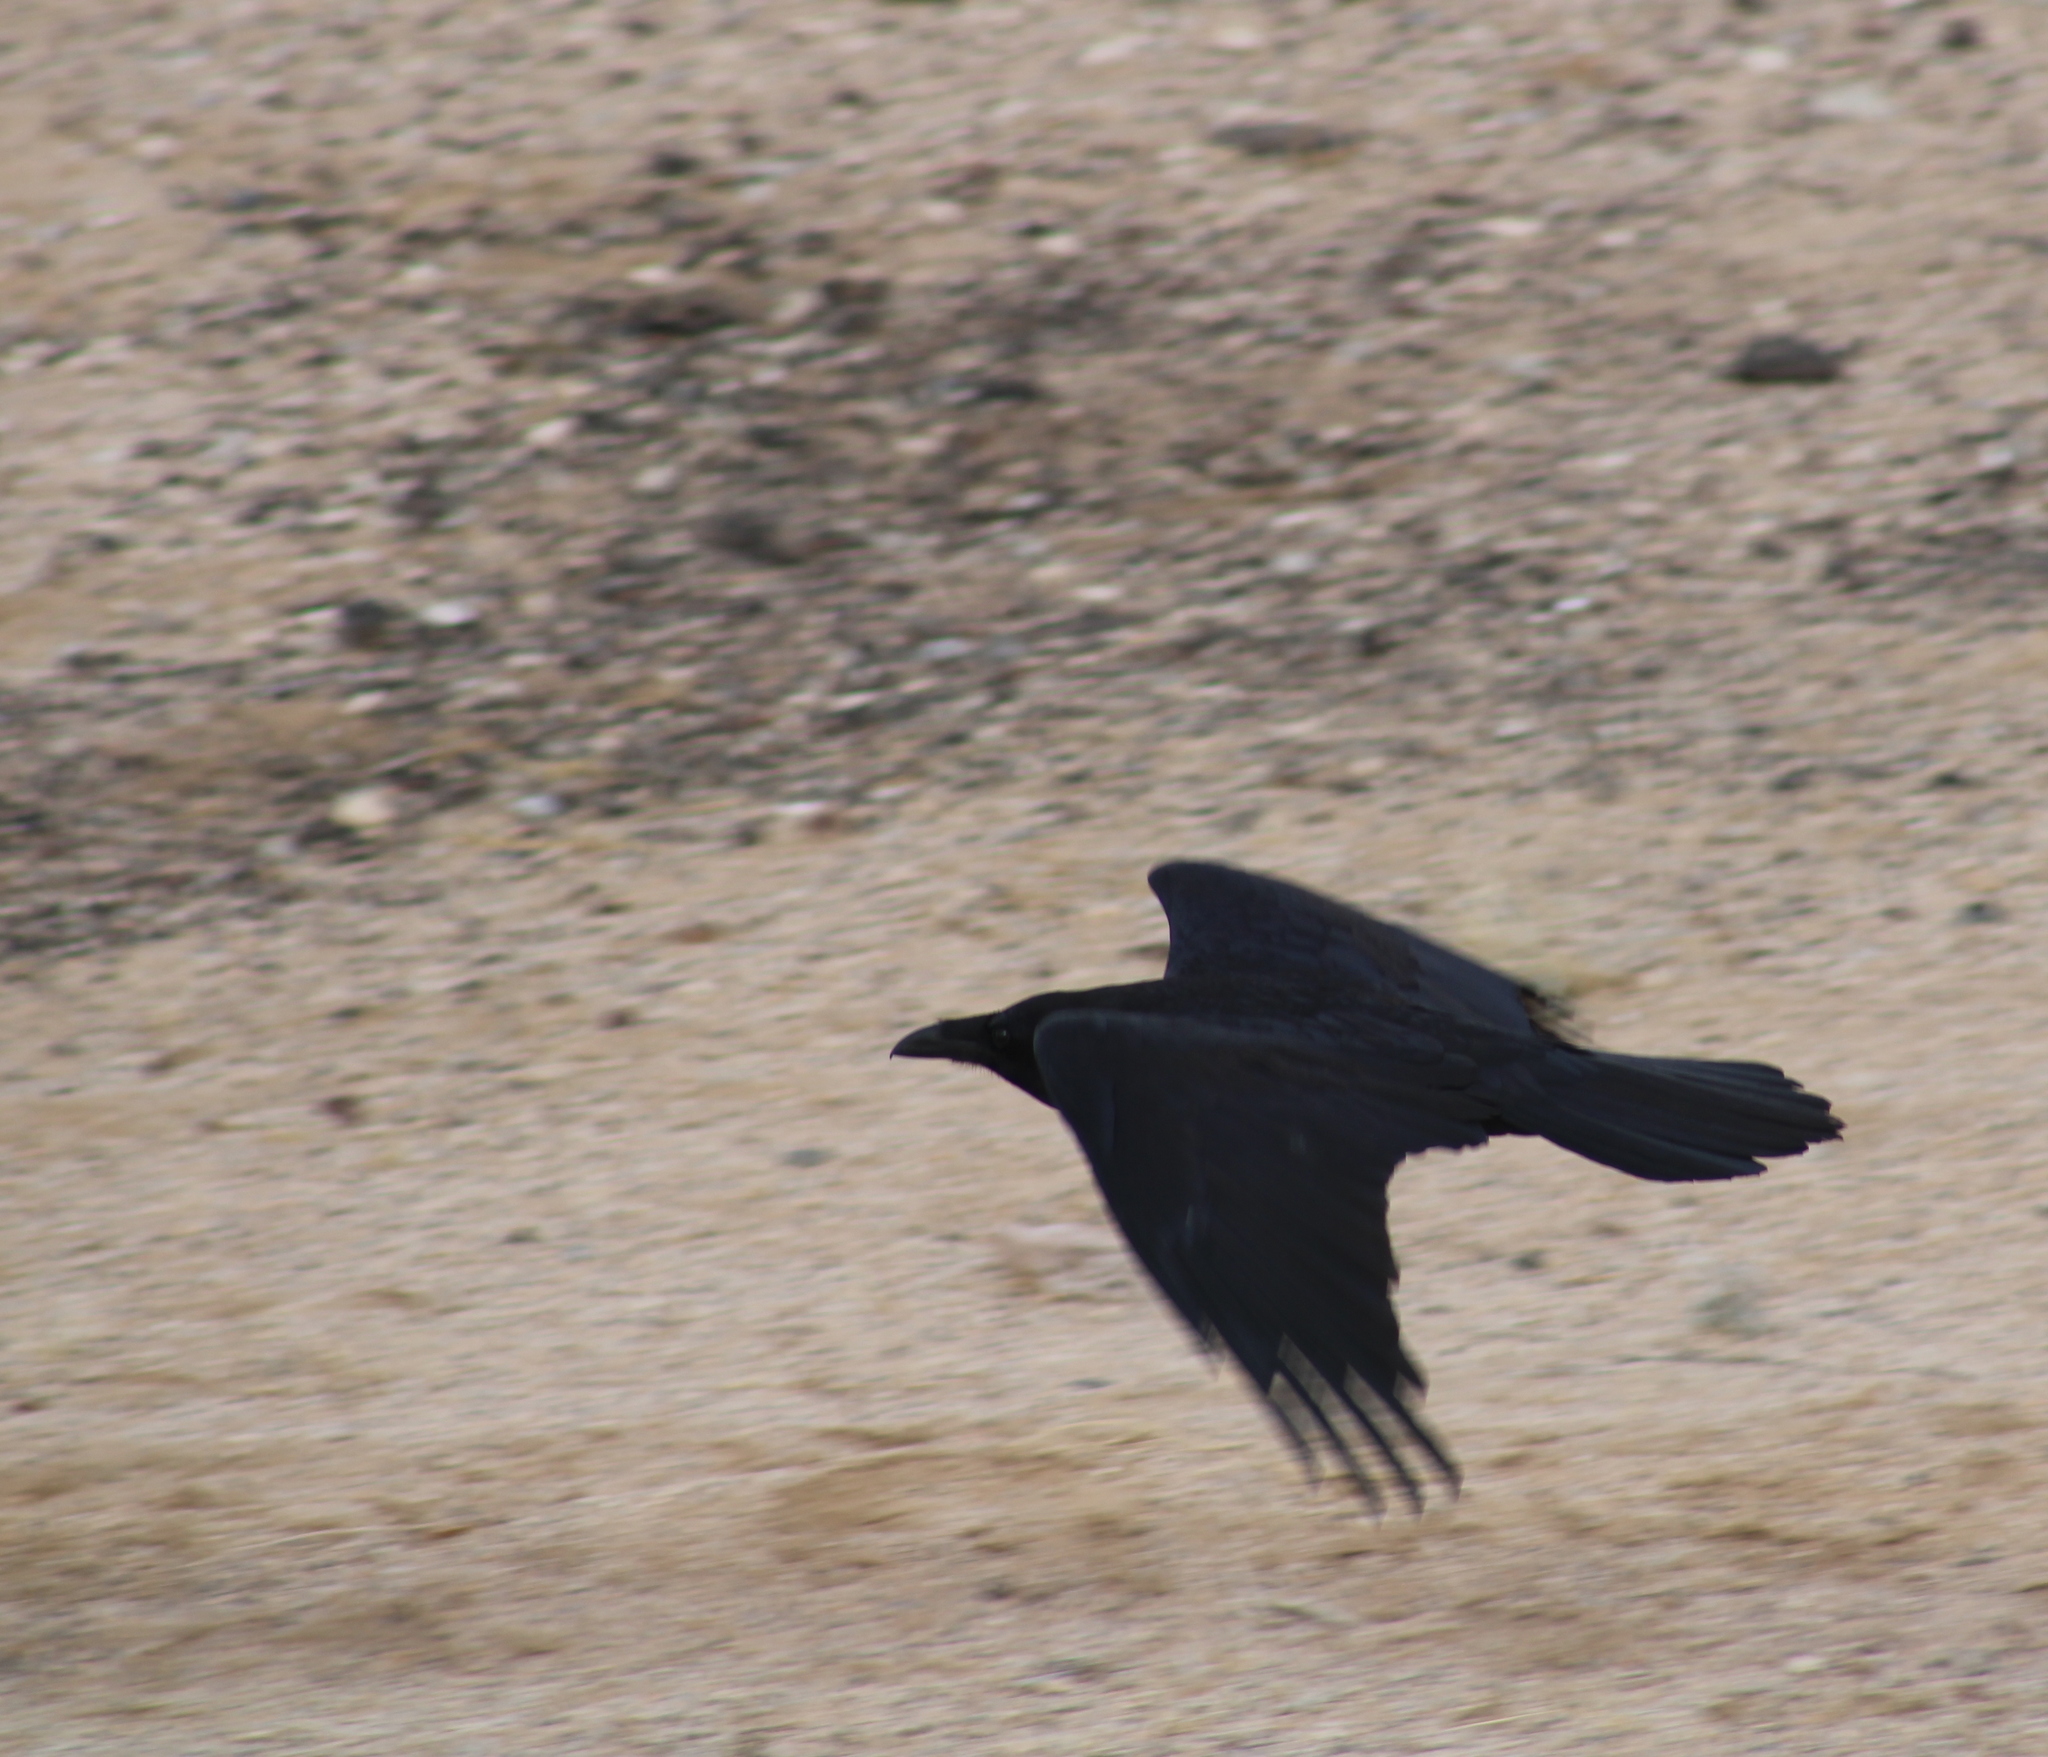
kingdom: Animalia
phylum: Chordata
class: Aves
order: Passeriformes
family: Corvidae
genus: Corvus
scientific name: Corvus corax
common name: Common raven
